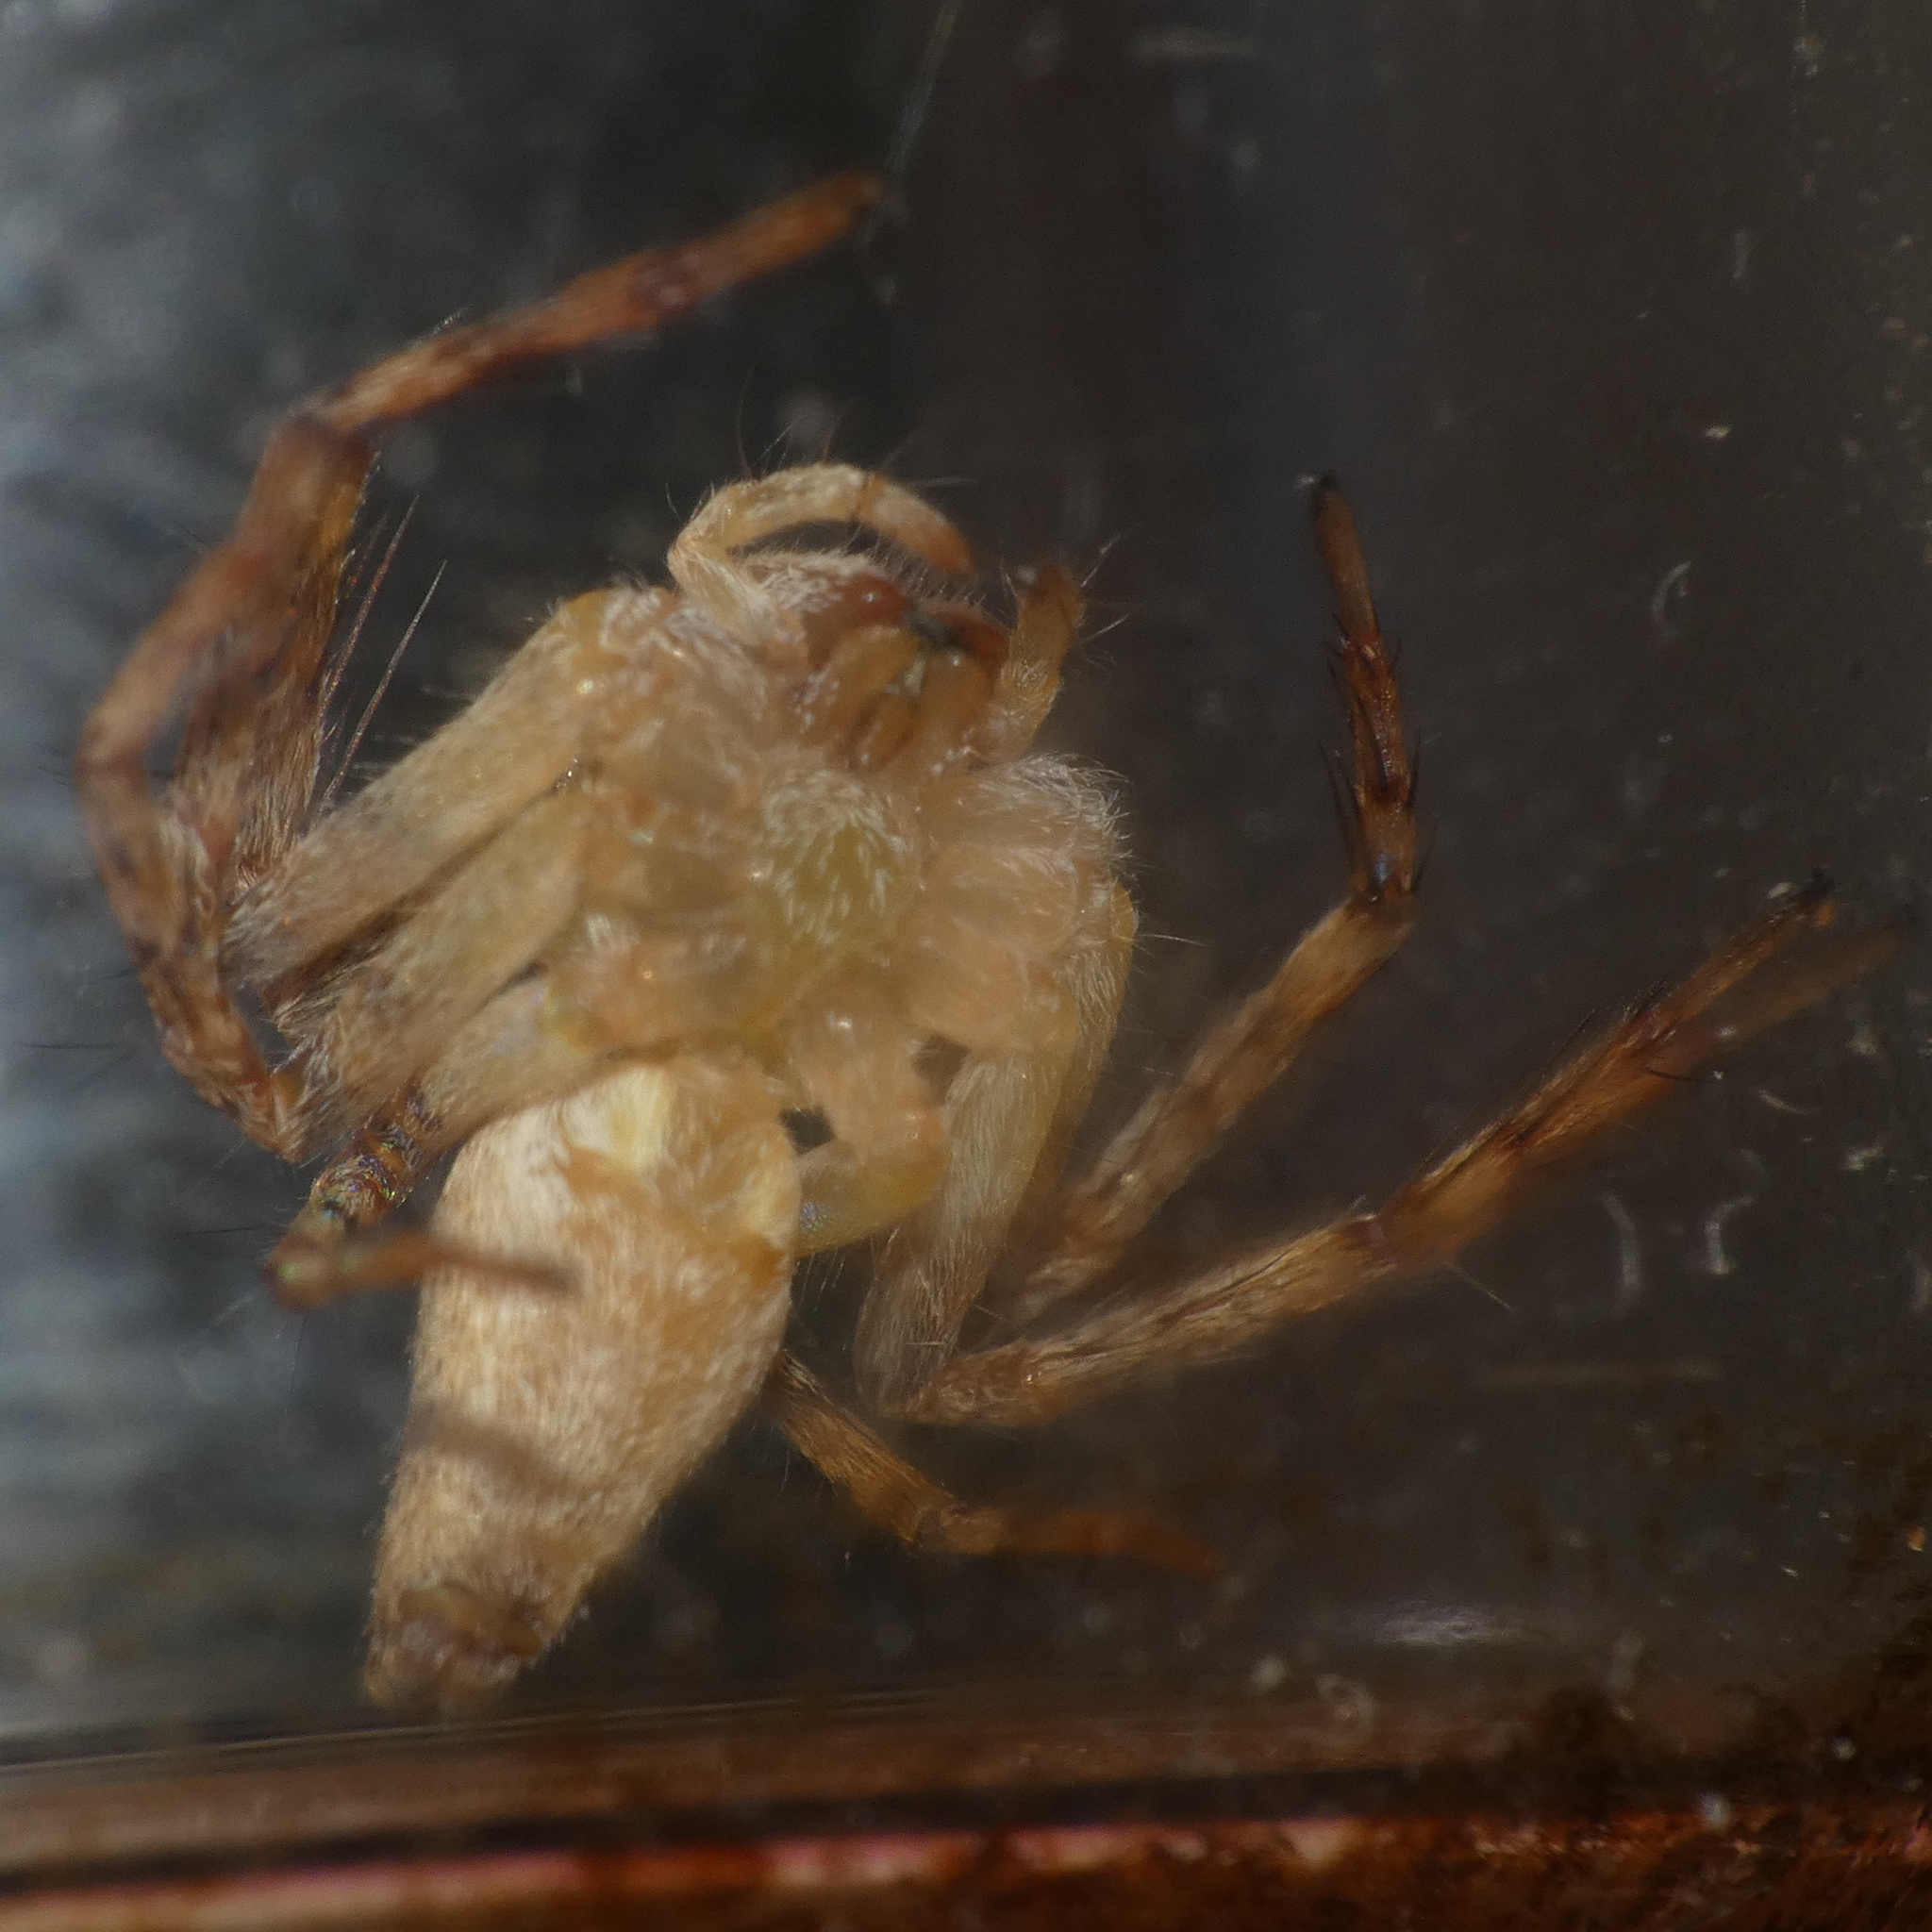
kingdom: Animalia
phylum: Arthropoda
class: Arachnida
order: Araneae
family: Oxyopidae
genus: Oxyopes
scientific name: Oxyopes schenkeli
